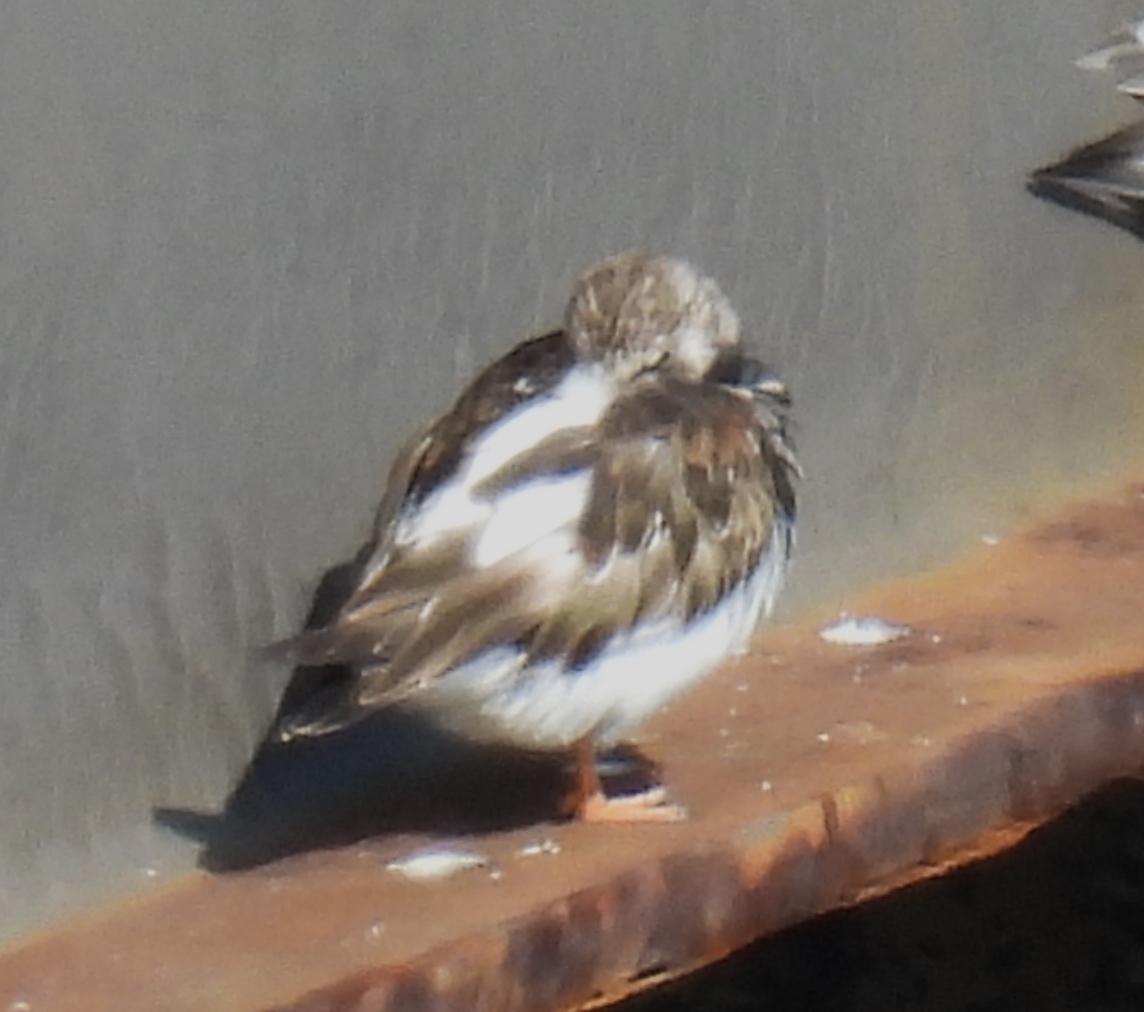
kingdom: Animalia
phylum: Chordata
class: Aves
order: Charadriiformes
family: Scolopacidae
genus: Arenaria
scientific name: Arenaria interpres
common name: Ruddy turnstone
